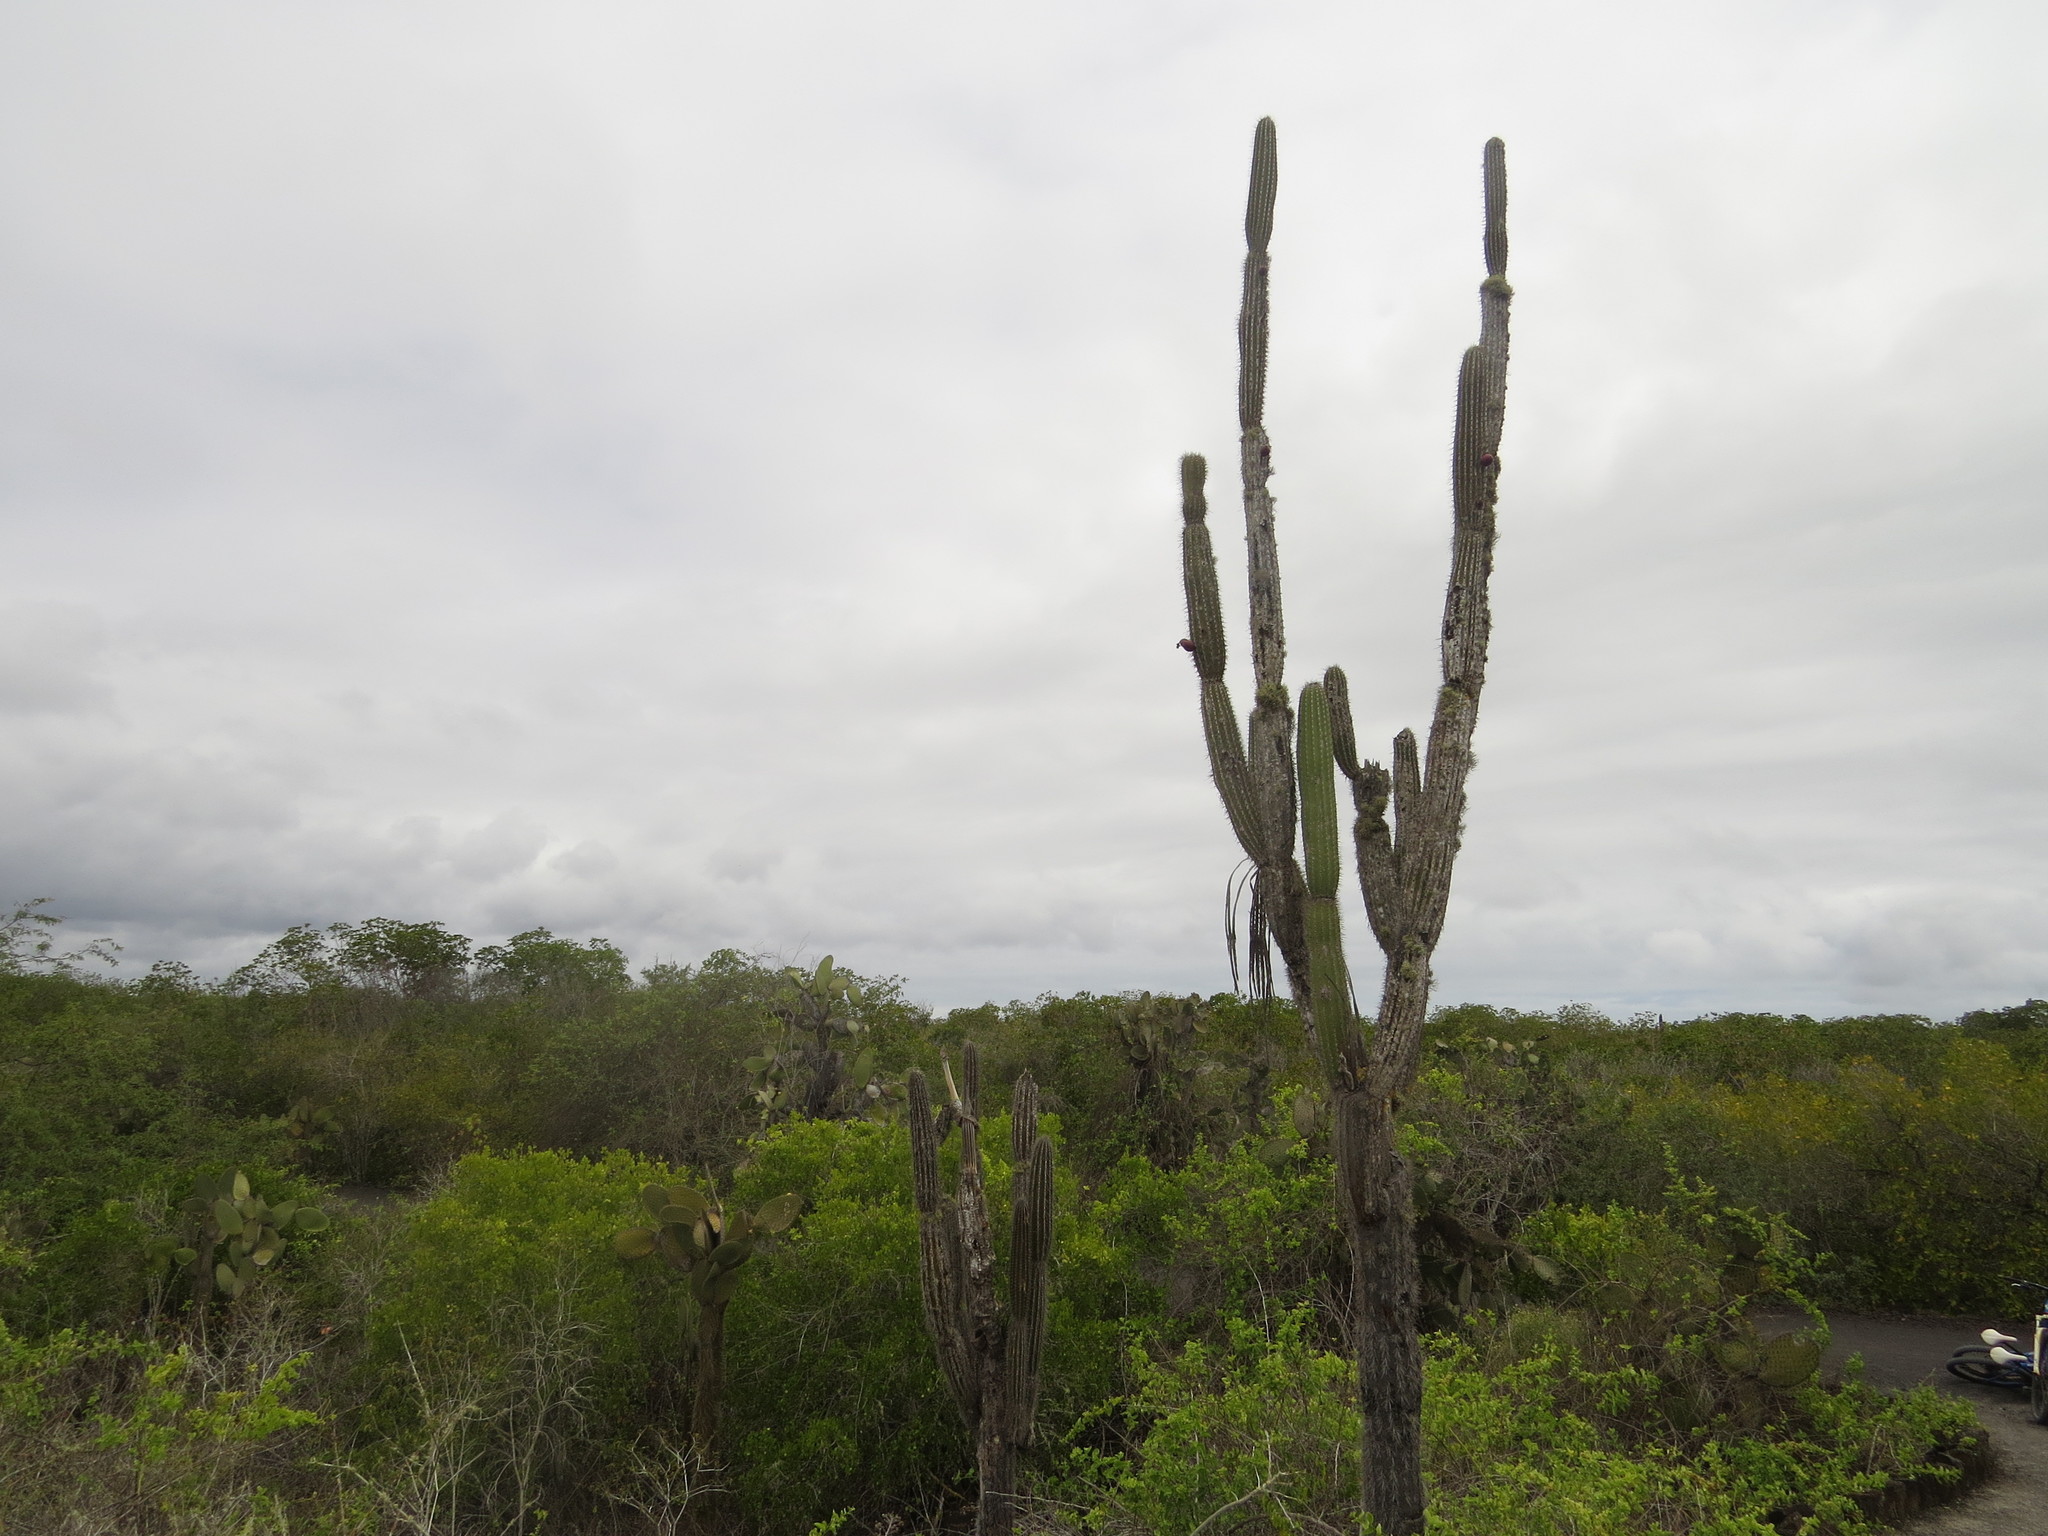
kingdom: Plantae
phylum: Tracheophyta
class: Magnoliopsida
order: Caryophyllales
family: Cactaceae
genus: Jasminocereus
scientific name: Jasminocereus thouarsii
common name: Candelabra cactus
